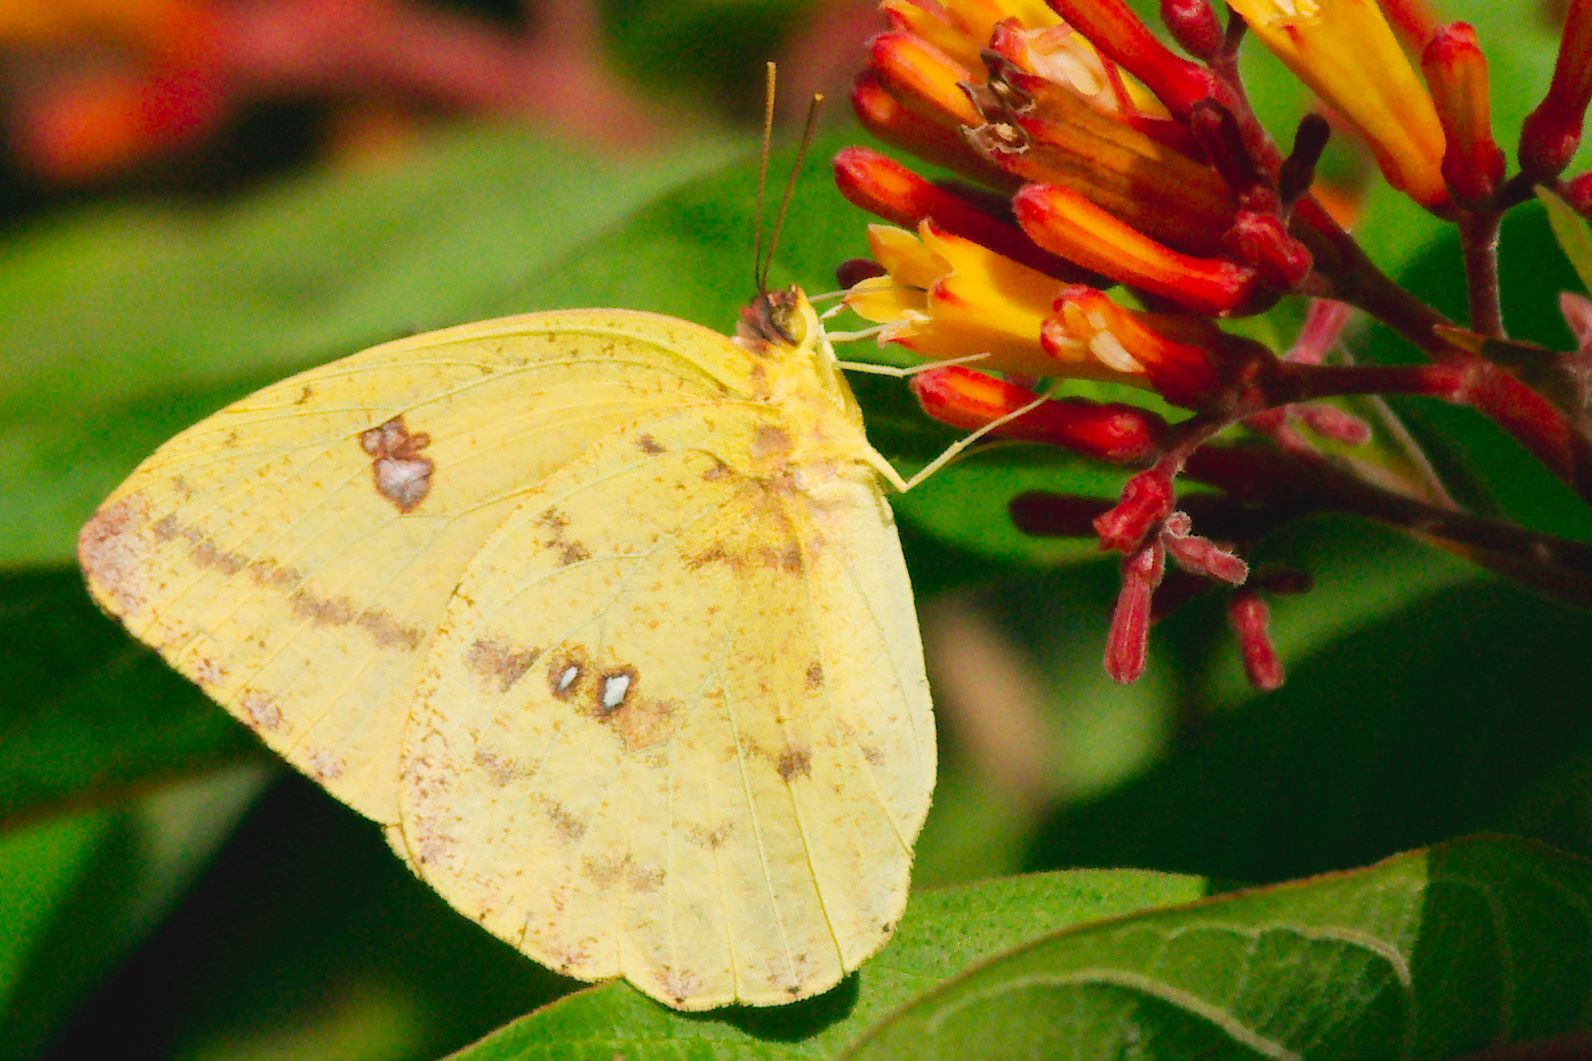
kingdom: Animalia
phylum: Arthropoda
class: Insecta
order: Lepidoptera
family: Pieridae
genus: Phoebis
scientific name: Phoebis agarithe
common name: Large orange sulphur
